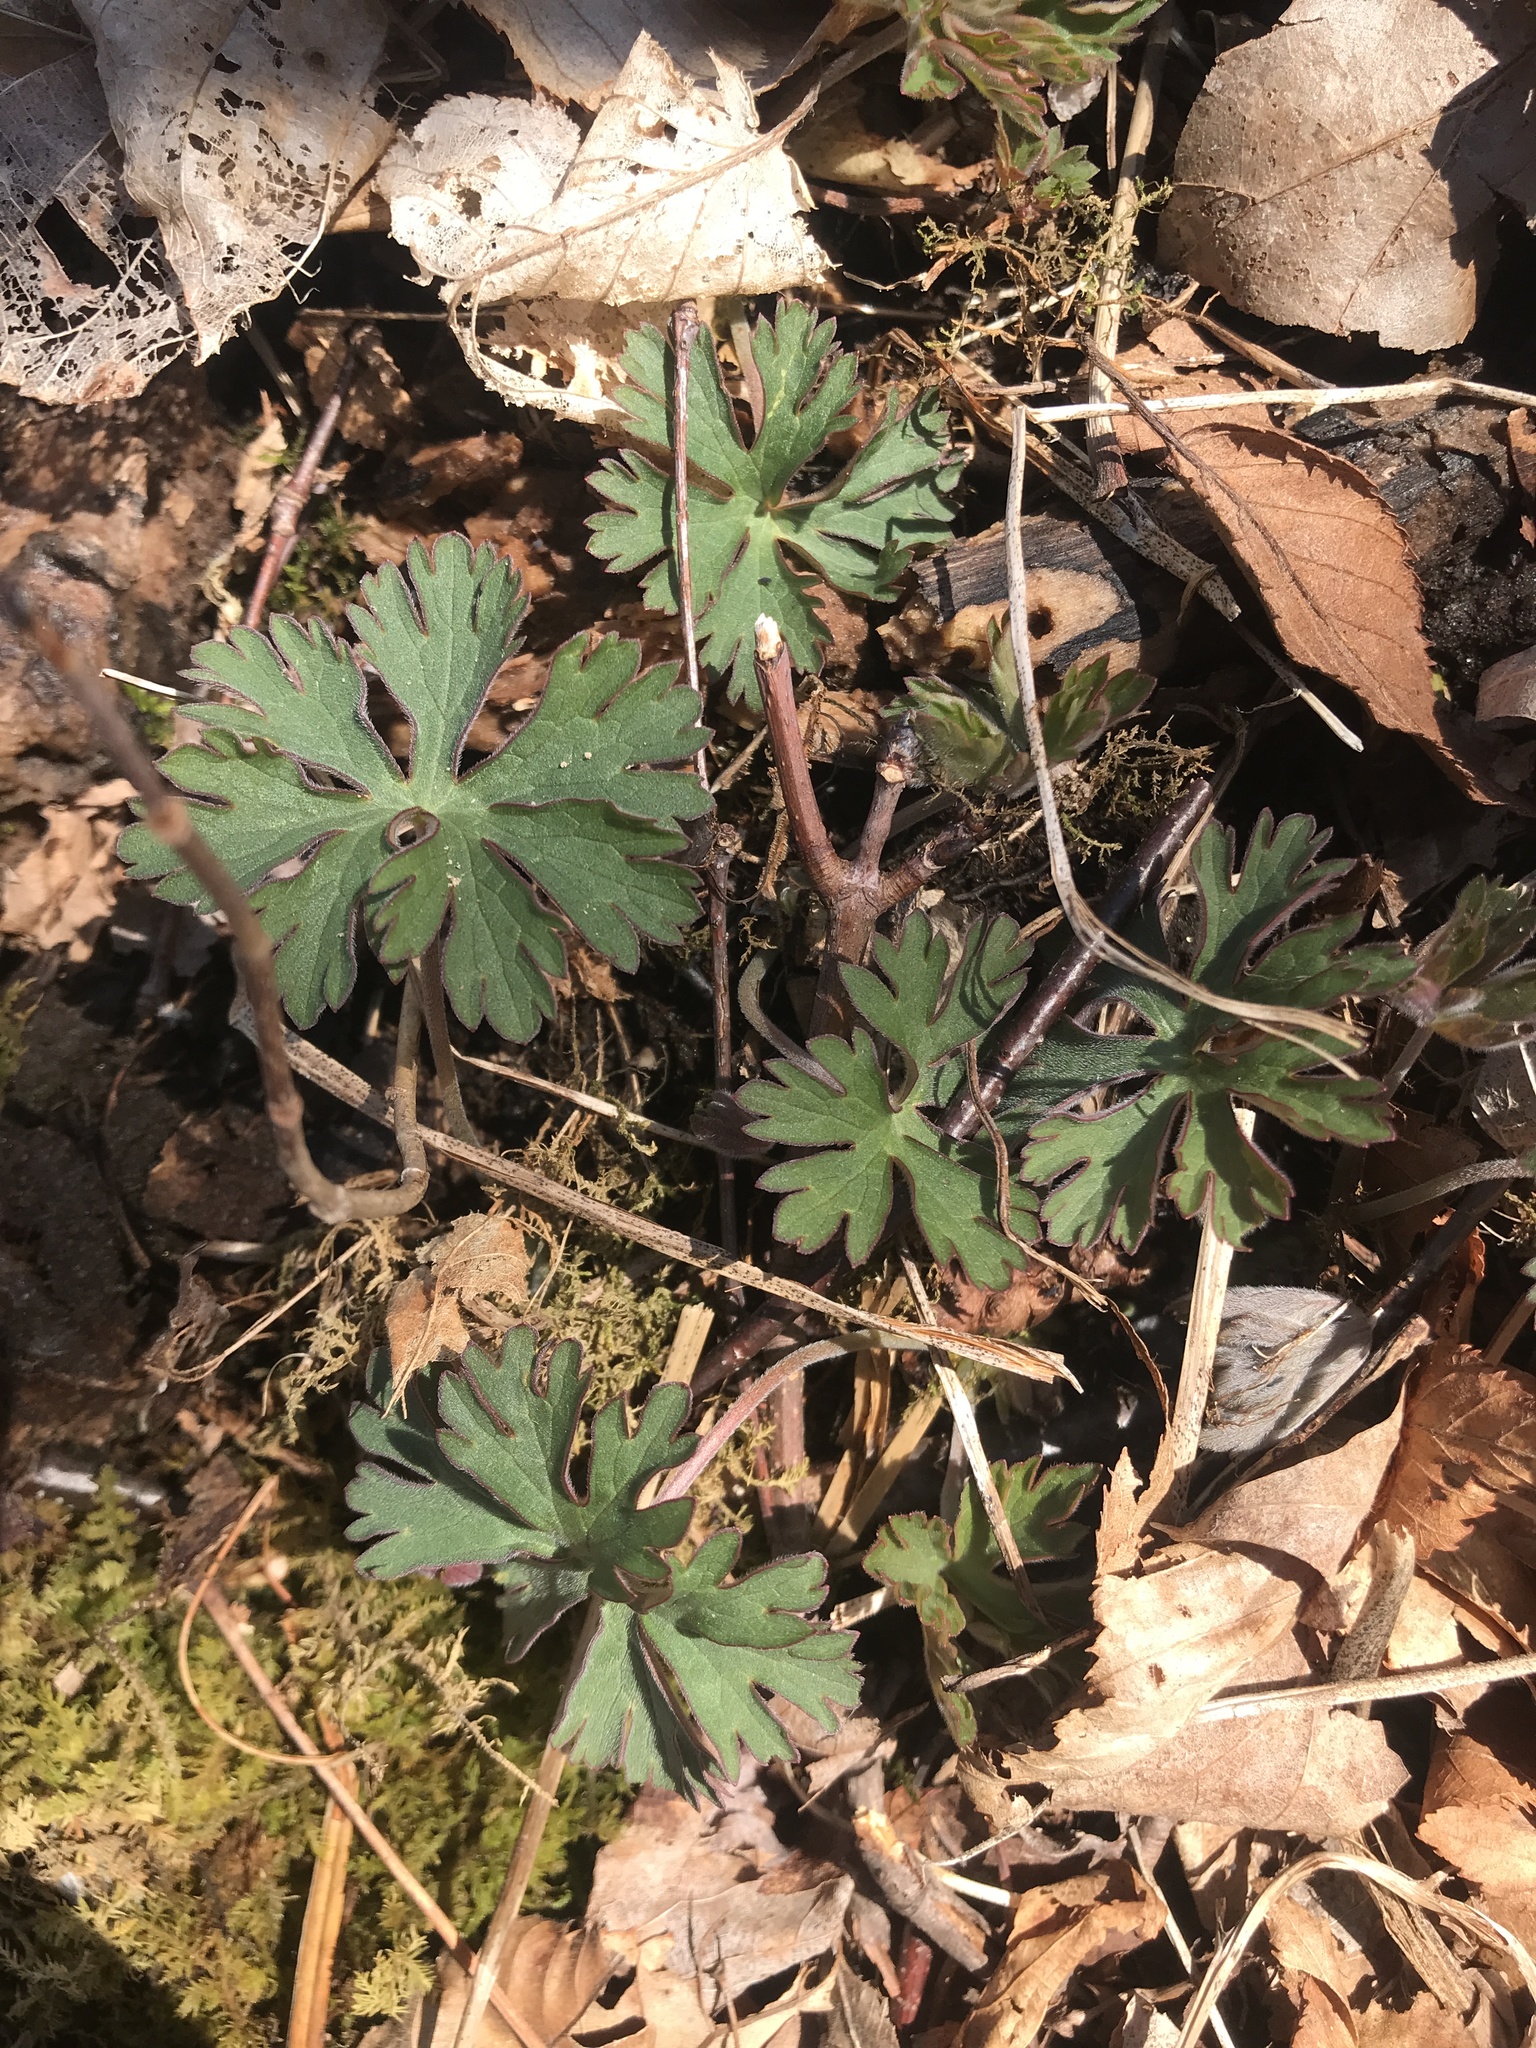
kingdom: Plantae
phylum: Tracheophyta
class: Magnoliopsida
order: Geraniales
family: Geraniaceae
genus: Geranium
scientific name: Geranium maculatum
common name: Spotted geranium
